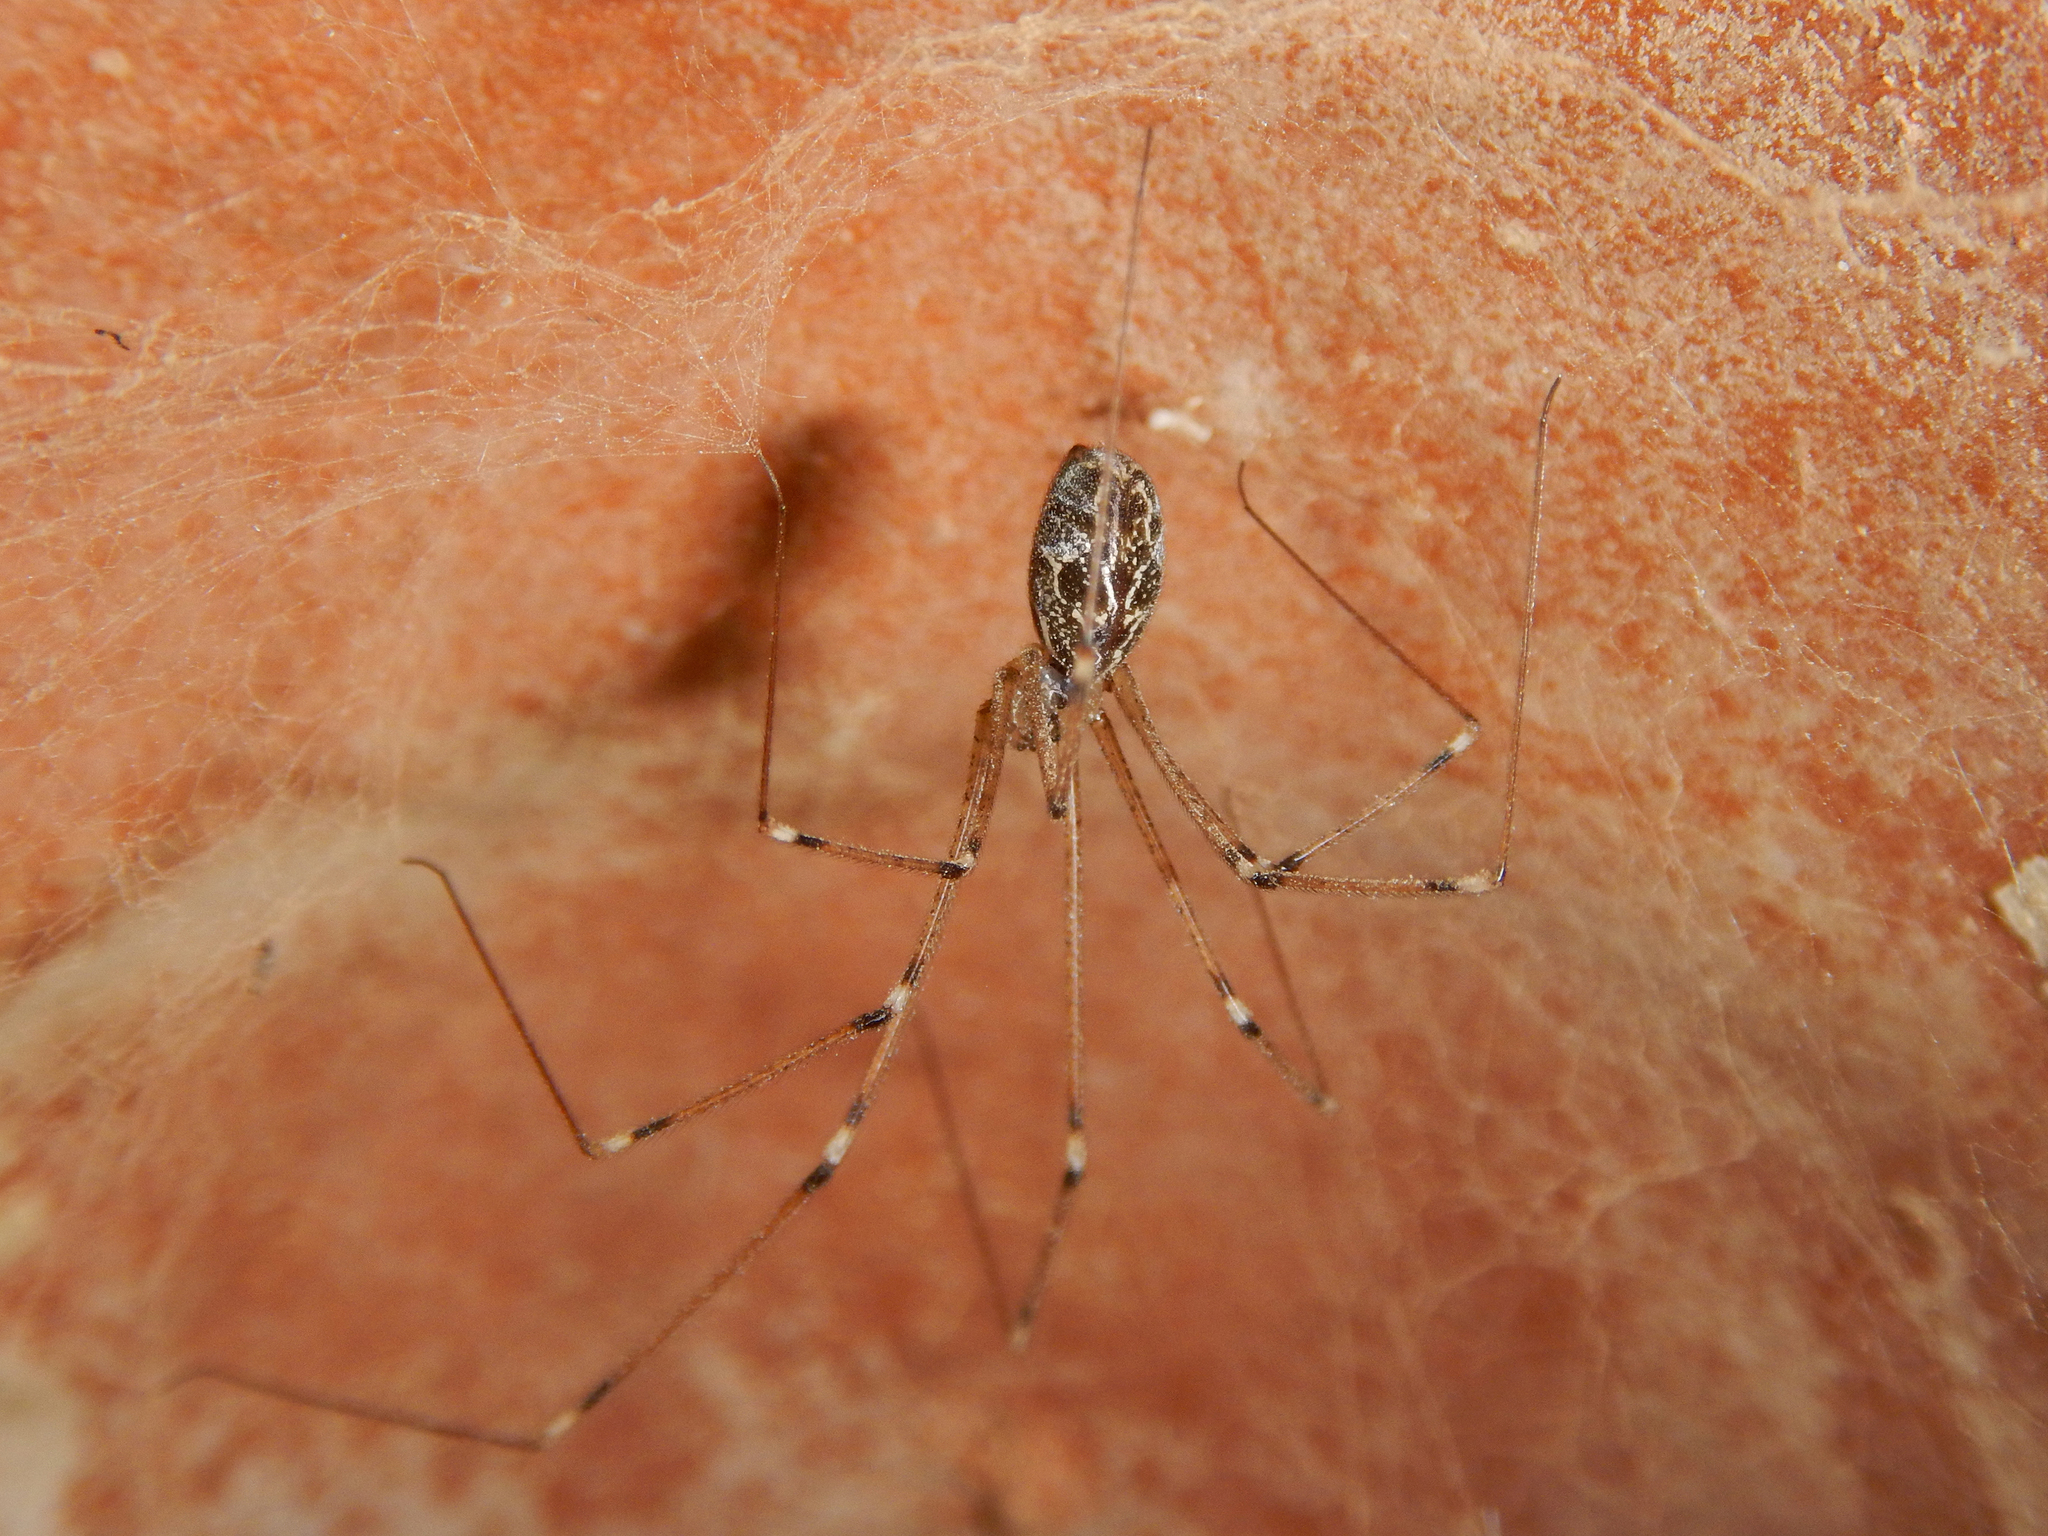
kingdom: Animalia
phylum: Arthropoda
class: Arachnida
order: Araneae
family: Pholcidae
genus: Holocnemus
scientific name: Holocnemus pluchei
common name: Marbled cellar spider
